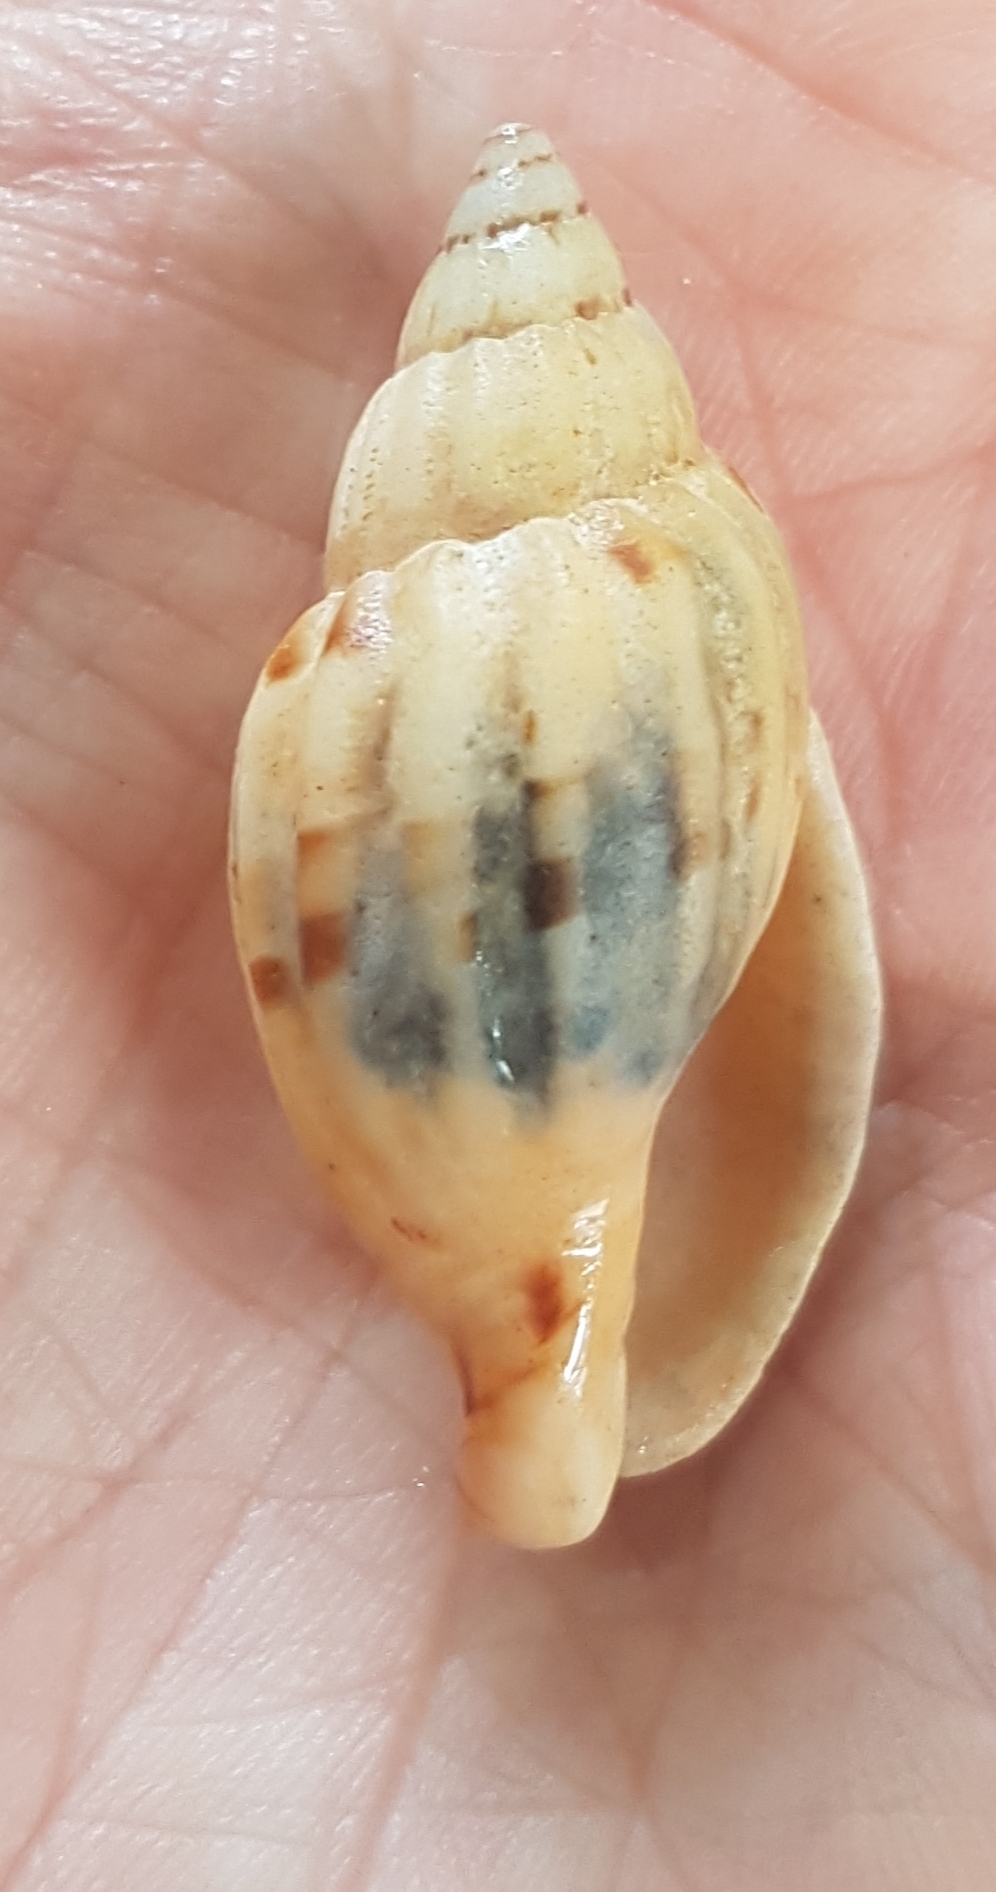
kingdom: Animalia
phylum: Mollusca
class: Gastropoda
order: Neogastropoda
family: Volutidae
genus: Lyria
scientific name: Lyria mitraeformis
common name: Miter-shaped lyria
